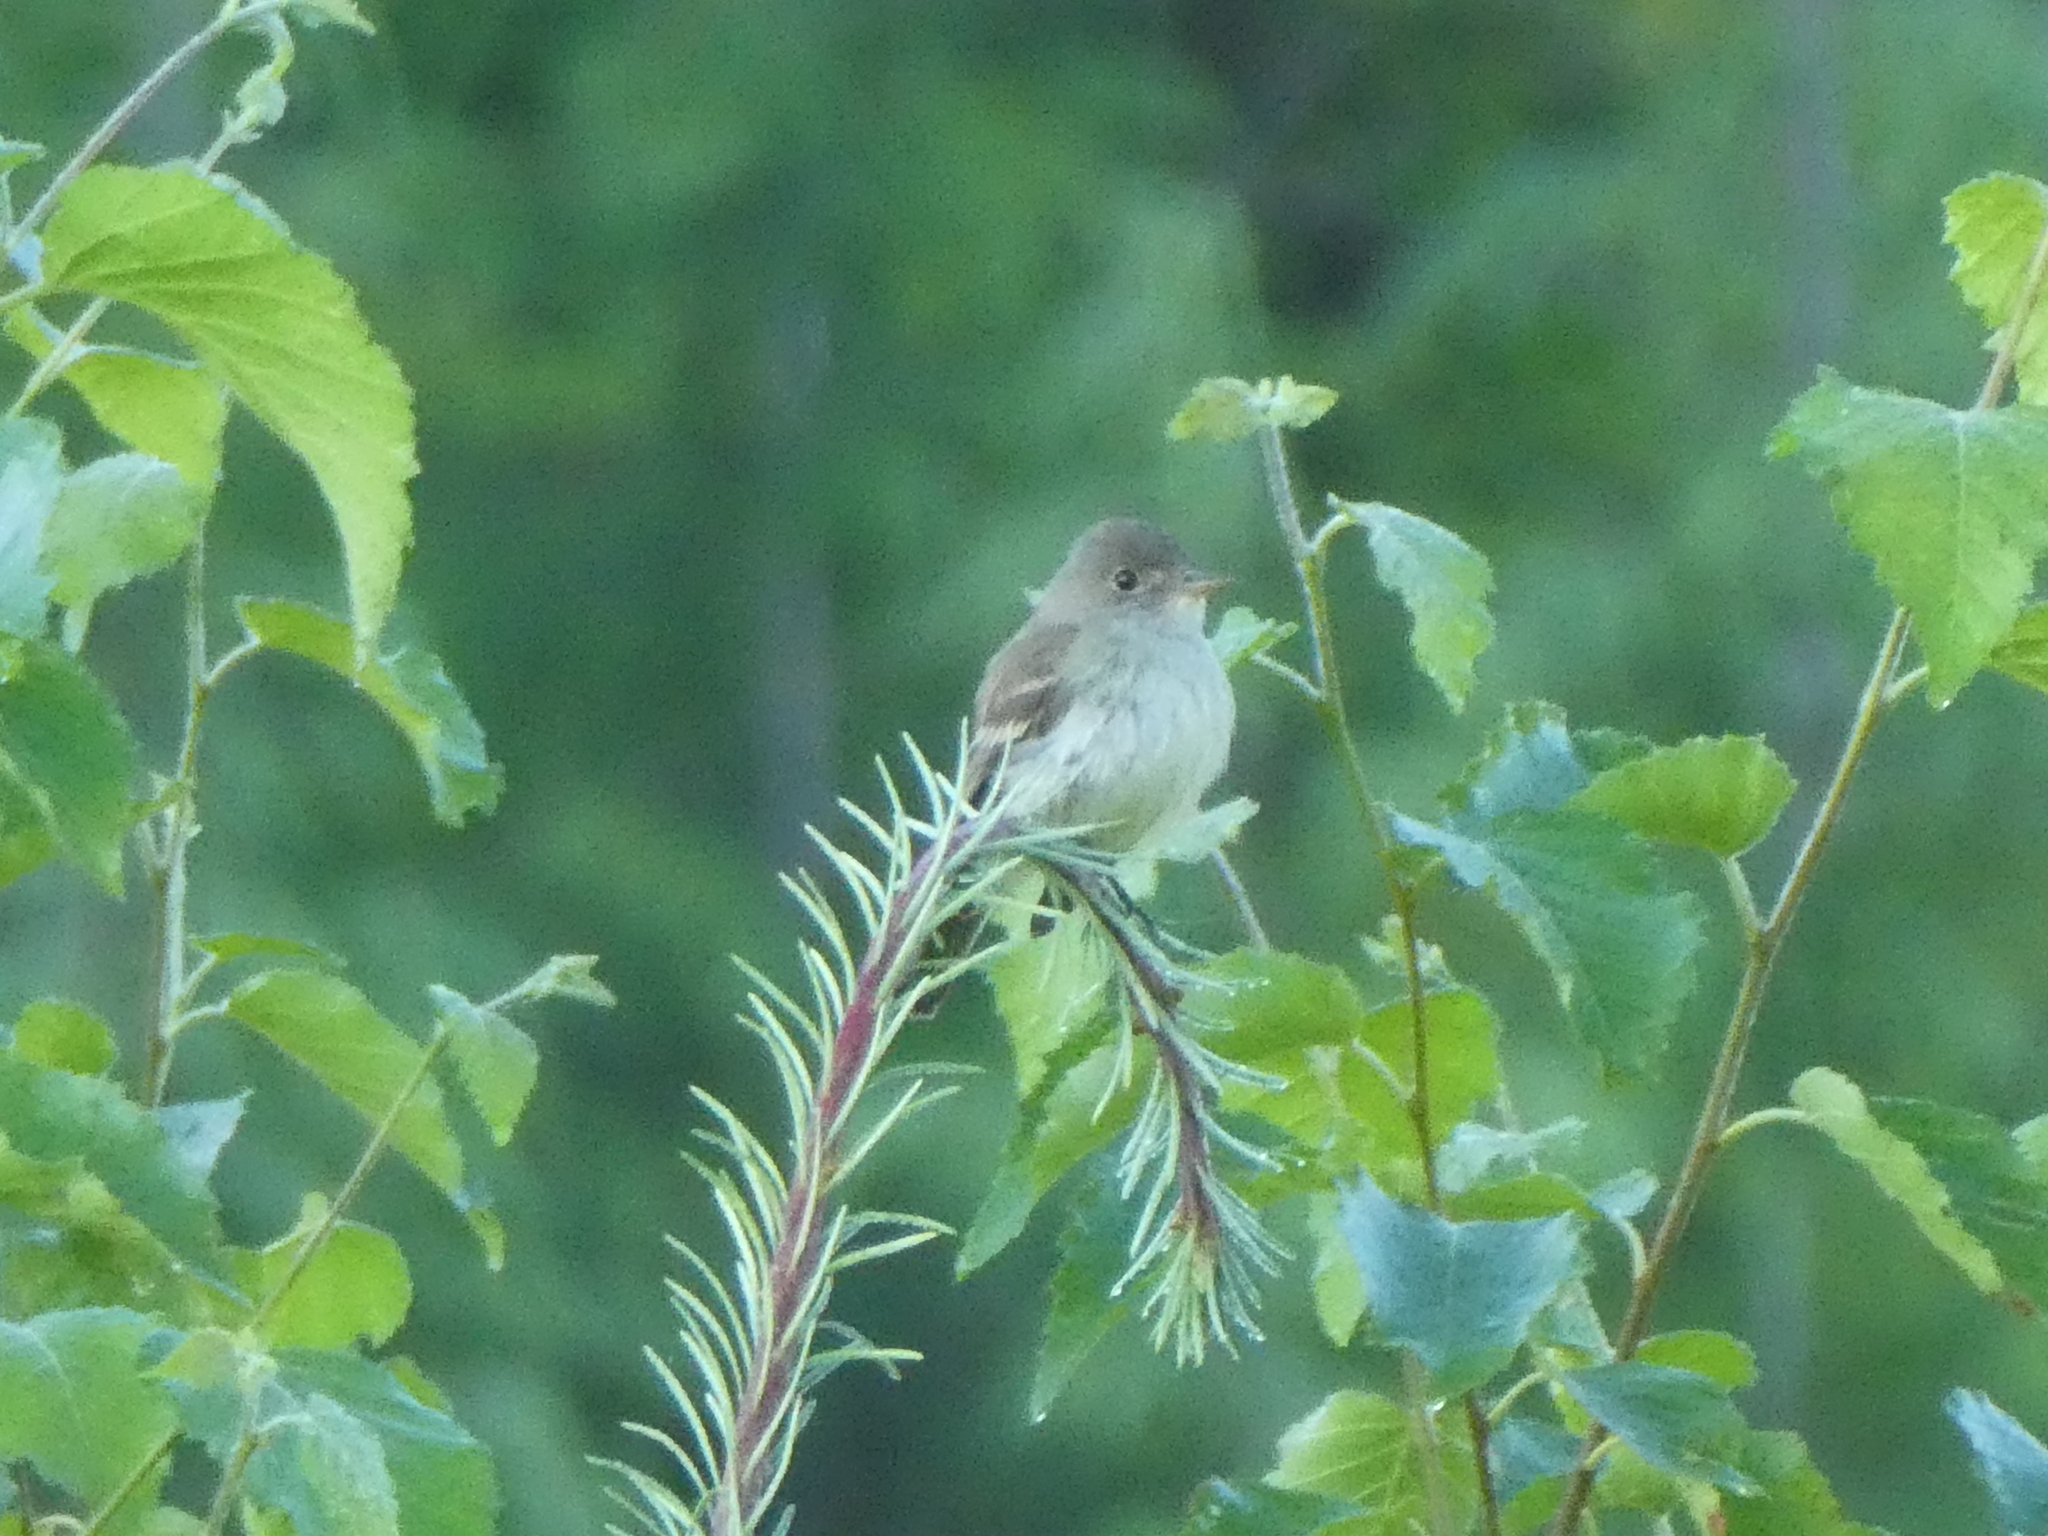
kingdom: Animalia
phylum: Chordata
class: Aves
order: Passeriformes
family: Tyrannidae
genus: Empidonax
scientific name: Empidonax traillii
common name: Willow flycatcher
